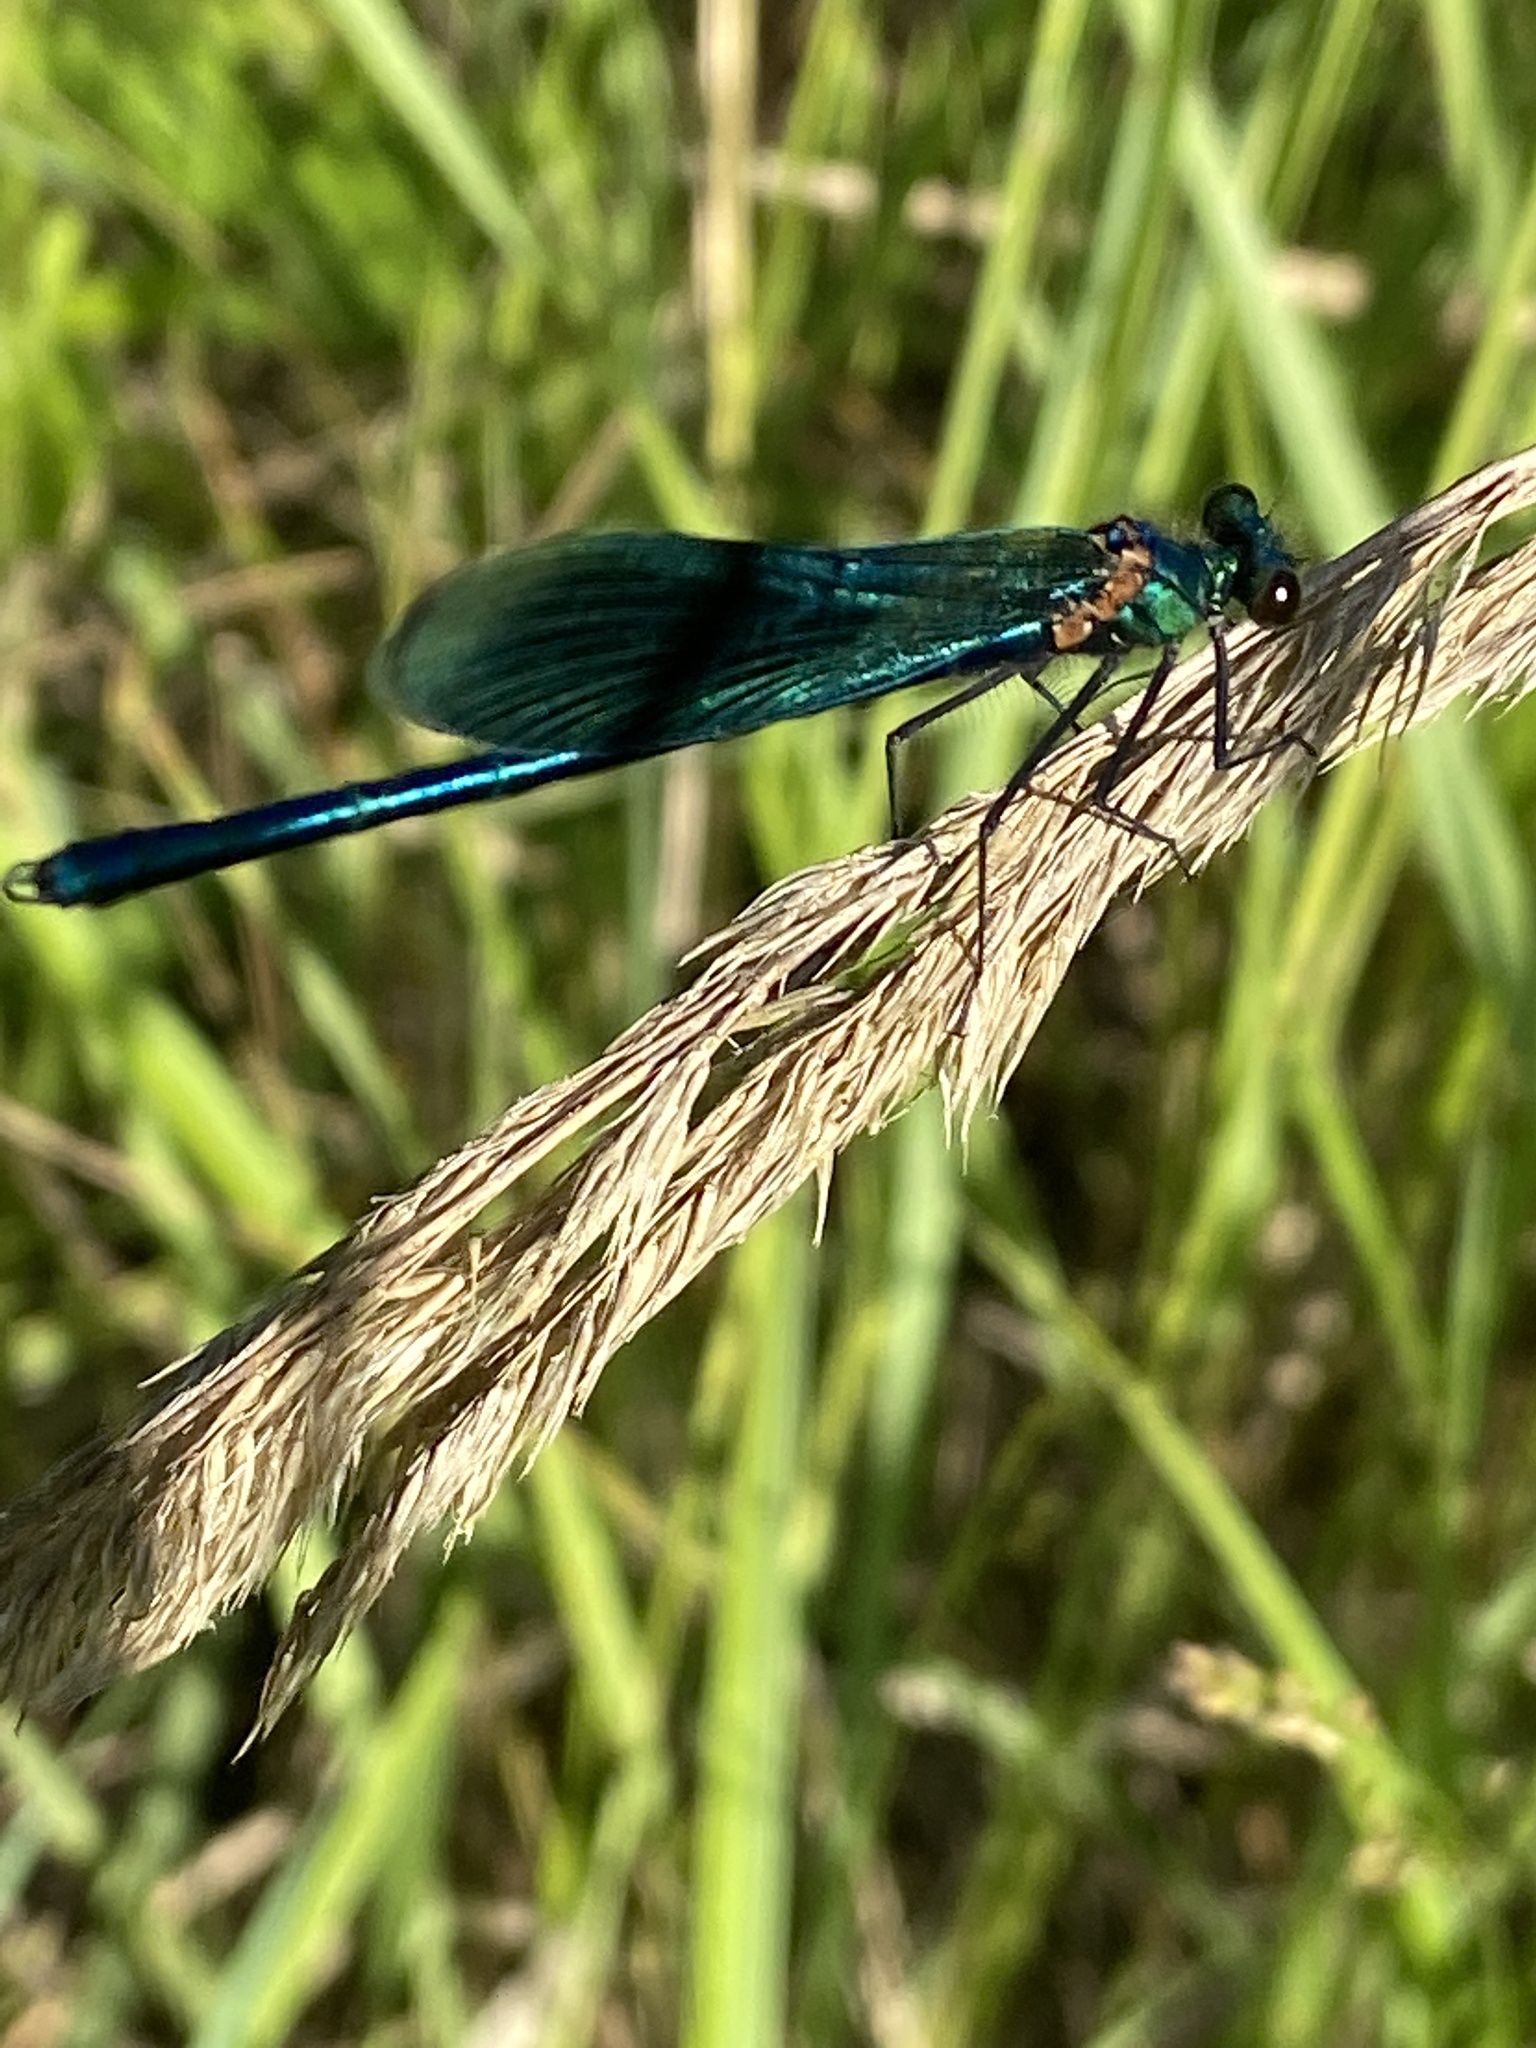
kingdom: Animalia
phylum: Arthropoda
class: Insecta
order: Odonata
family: Calopterygidae
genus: Calopteryx
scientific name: Calopteryx splendens
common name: Banded demoiselle
